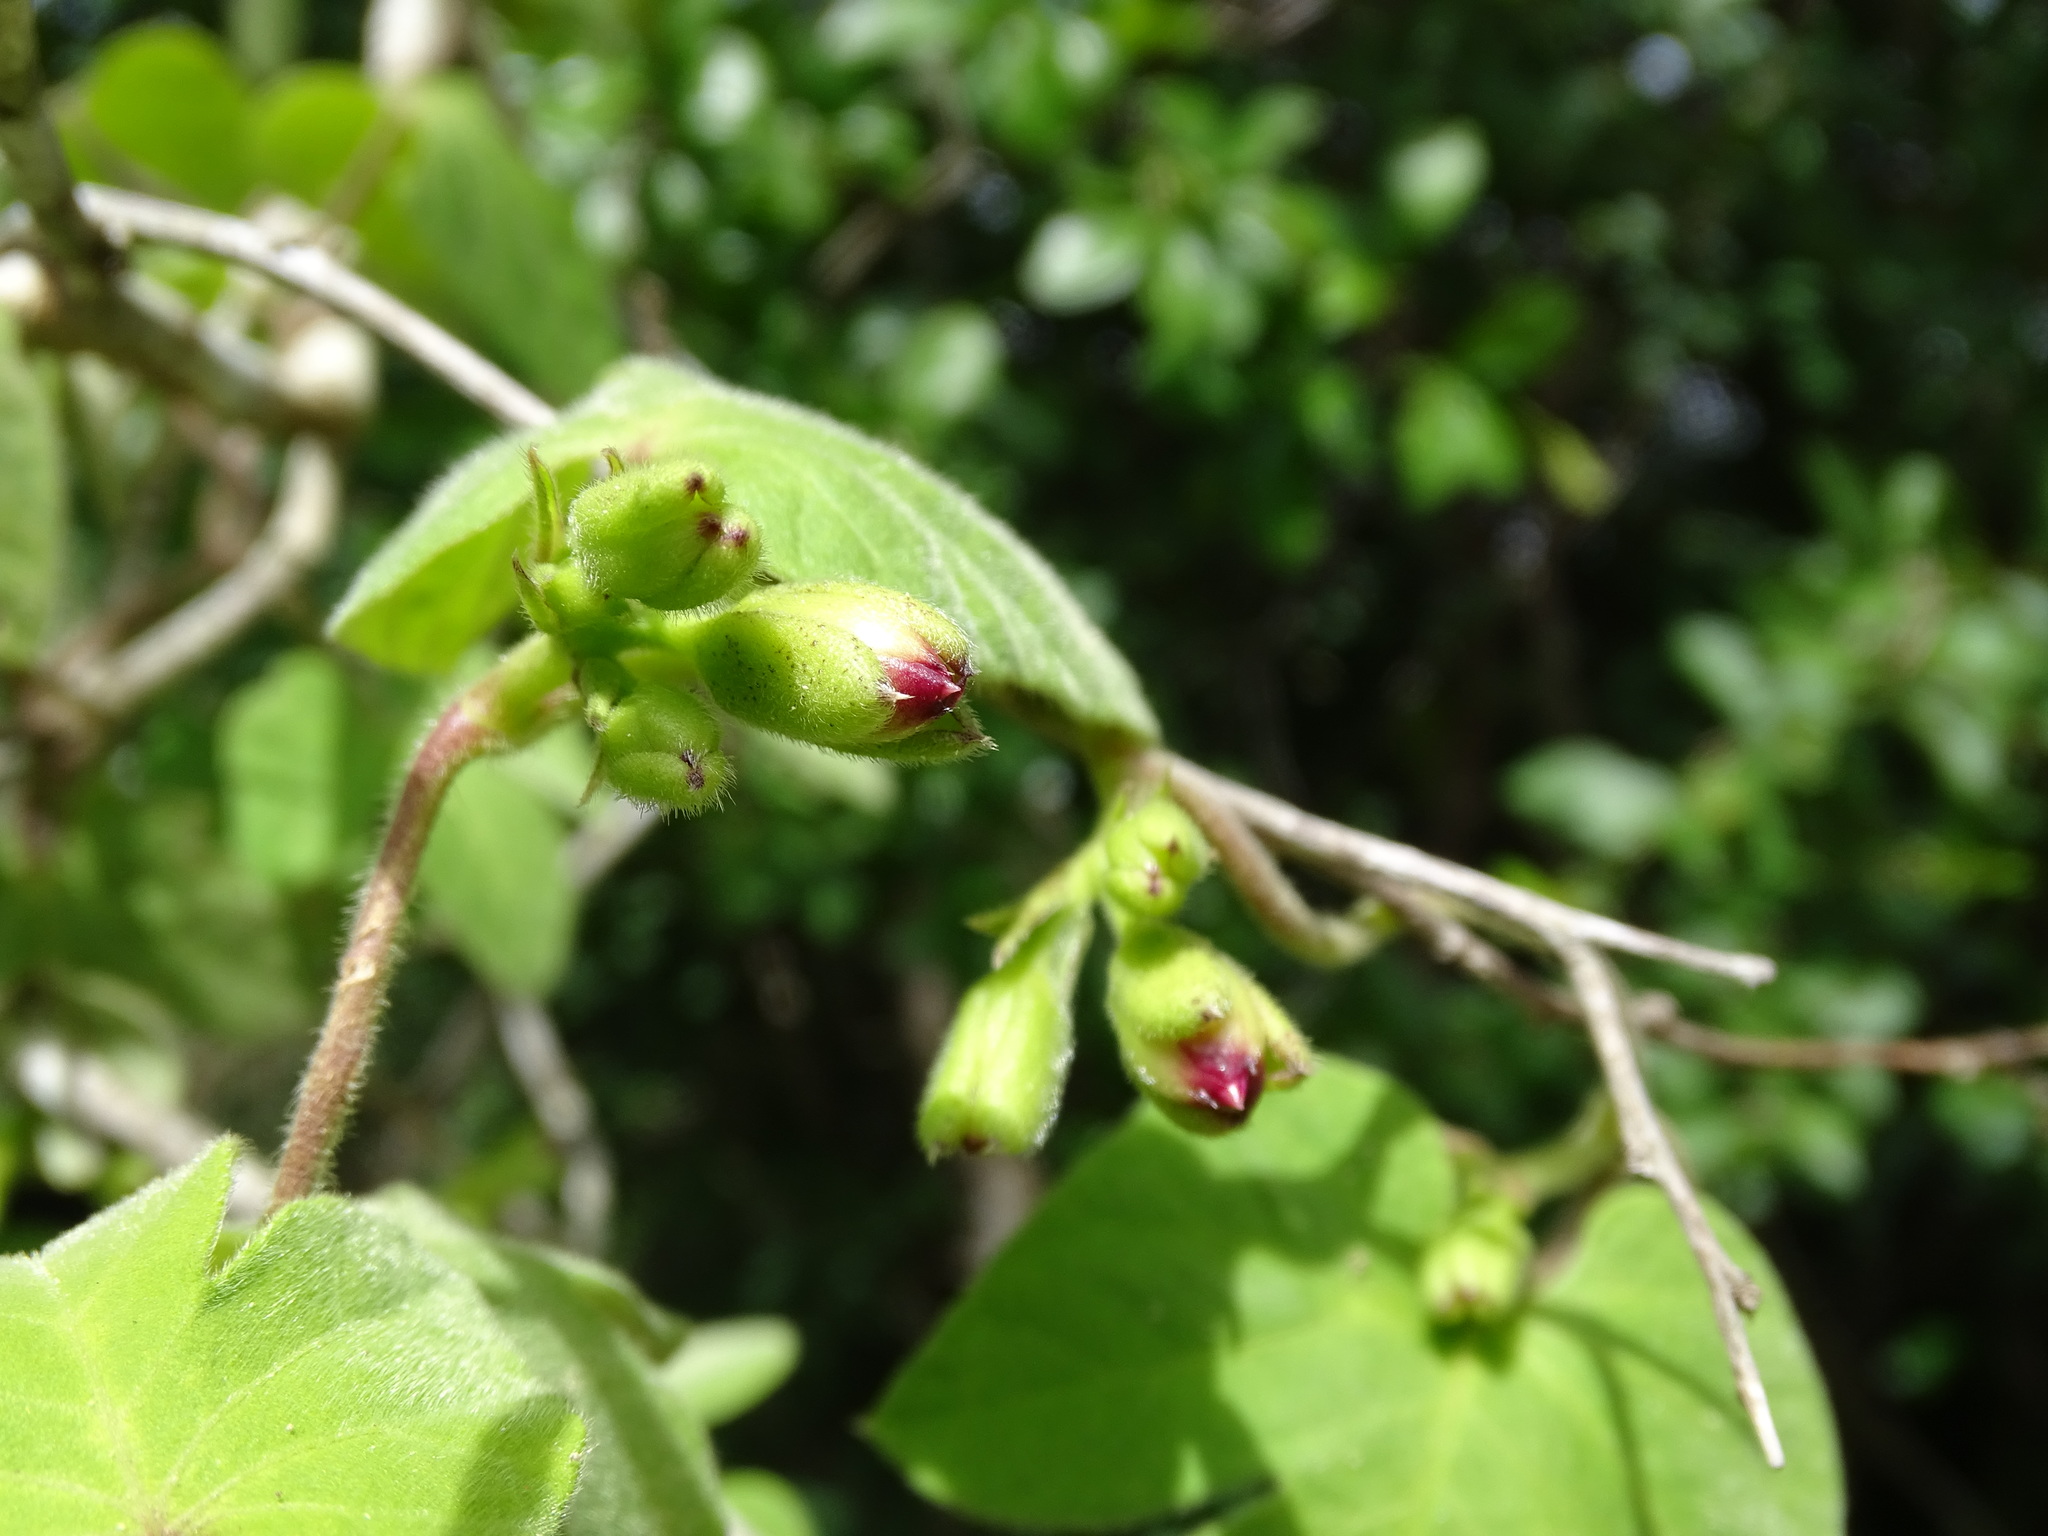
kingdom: Plantae
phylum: Tracheophyta
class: Magnoliopsida
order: Solanales
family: Convolvulaceae
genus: Ipomoea
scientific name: Ipomoea peteri
